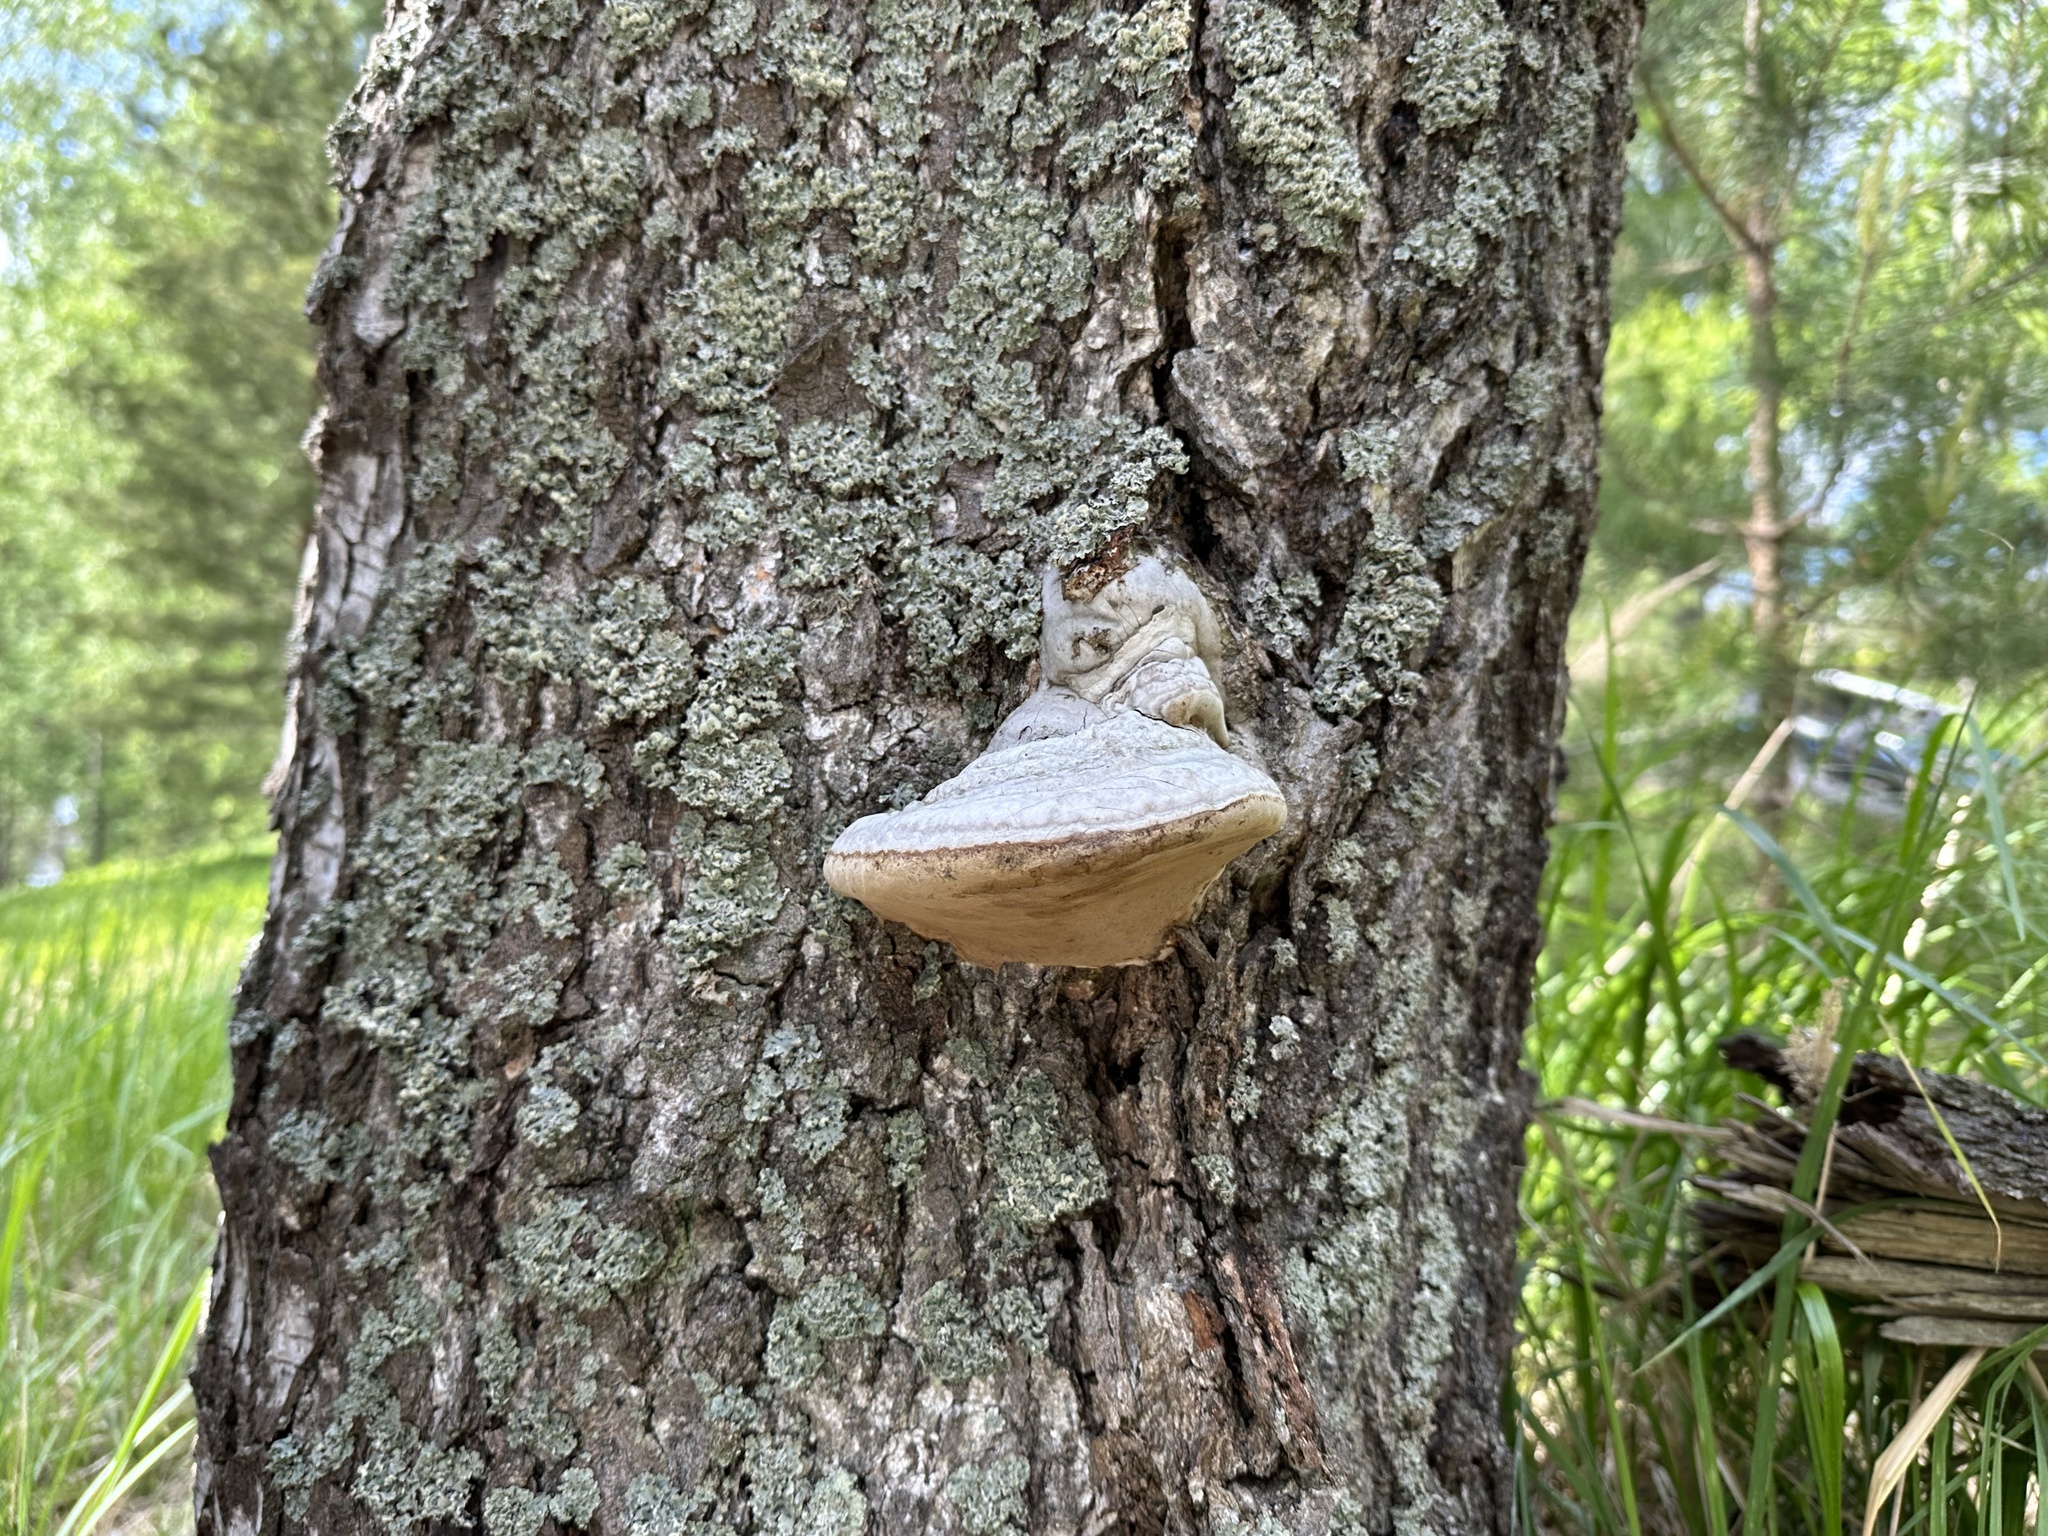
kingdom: Fungi
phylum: Basidiomycota
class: Agaricomycetes
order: Polyporales
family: Polyporaceae
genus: Fomes
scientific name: Fomes fomentarius
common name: Hoof fungus
